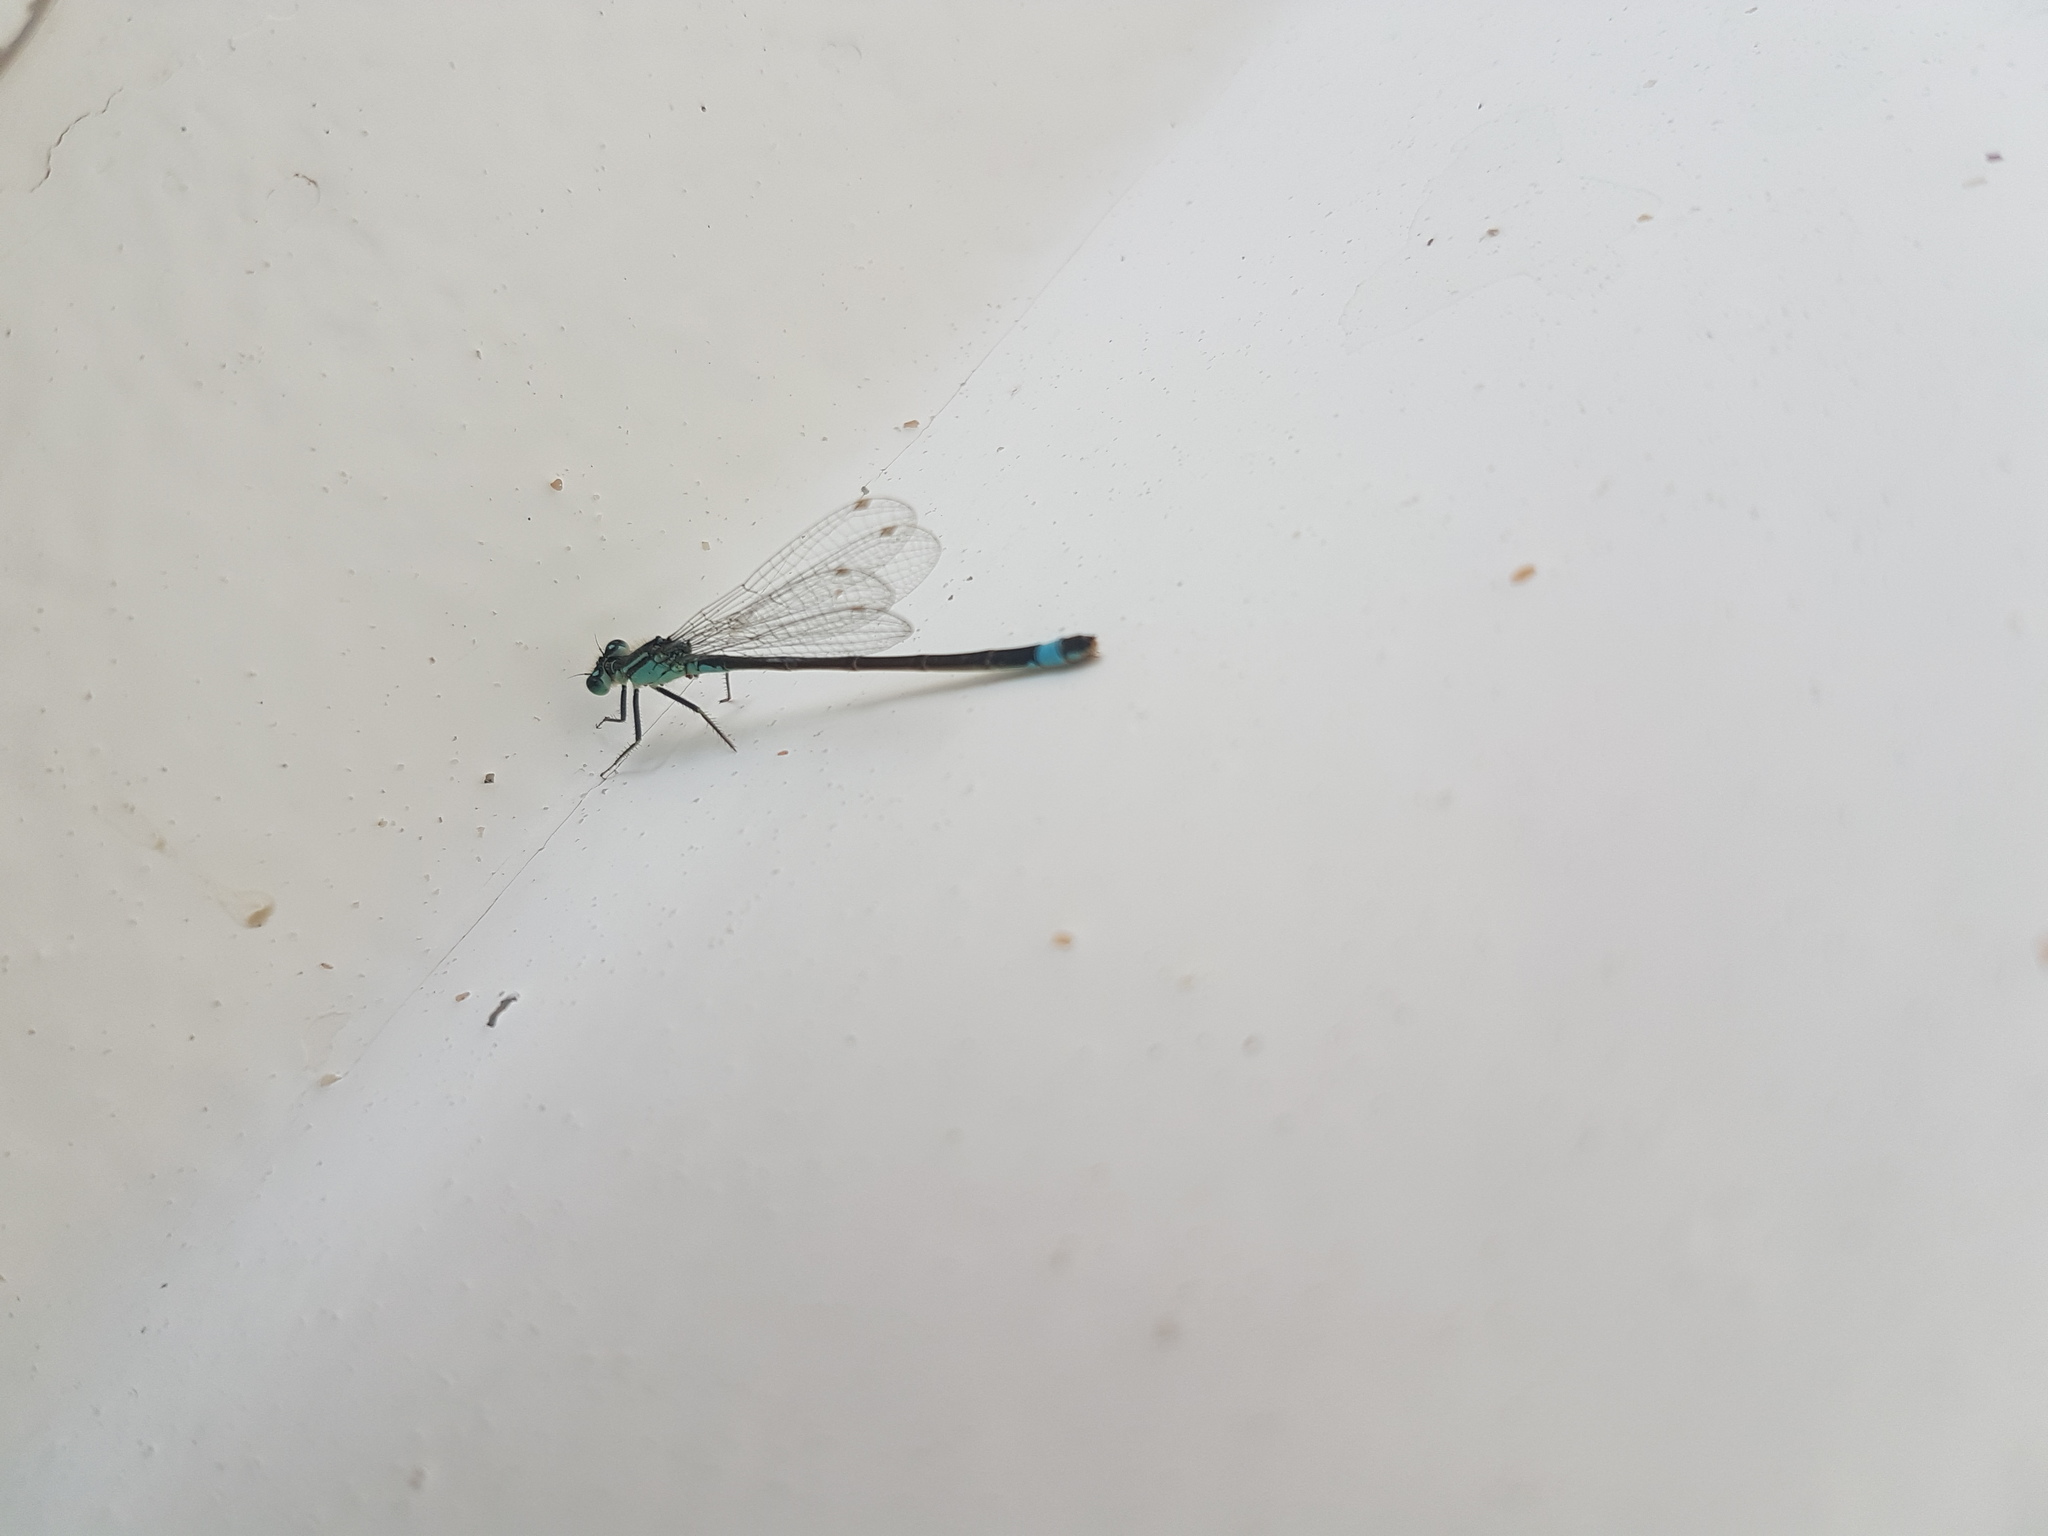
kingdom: Animalia
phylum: Arthropoda
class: Insecta
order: Odonata
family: Coenagrionidae
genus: Ischnura
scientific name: Ischnura elegans
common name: Blue-tailed damselfly
